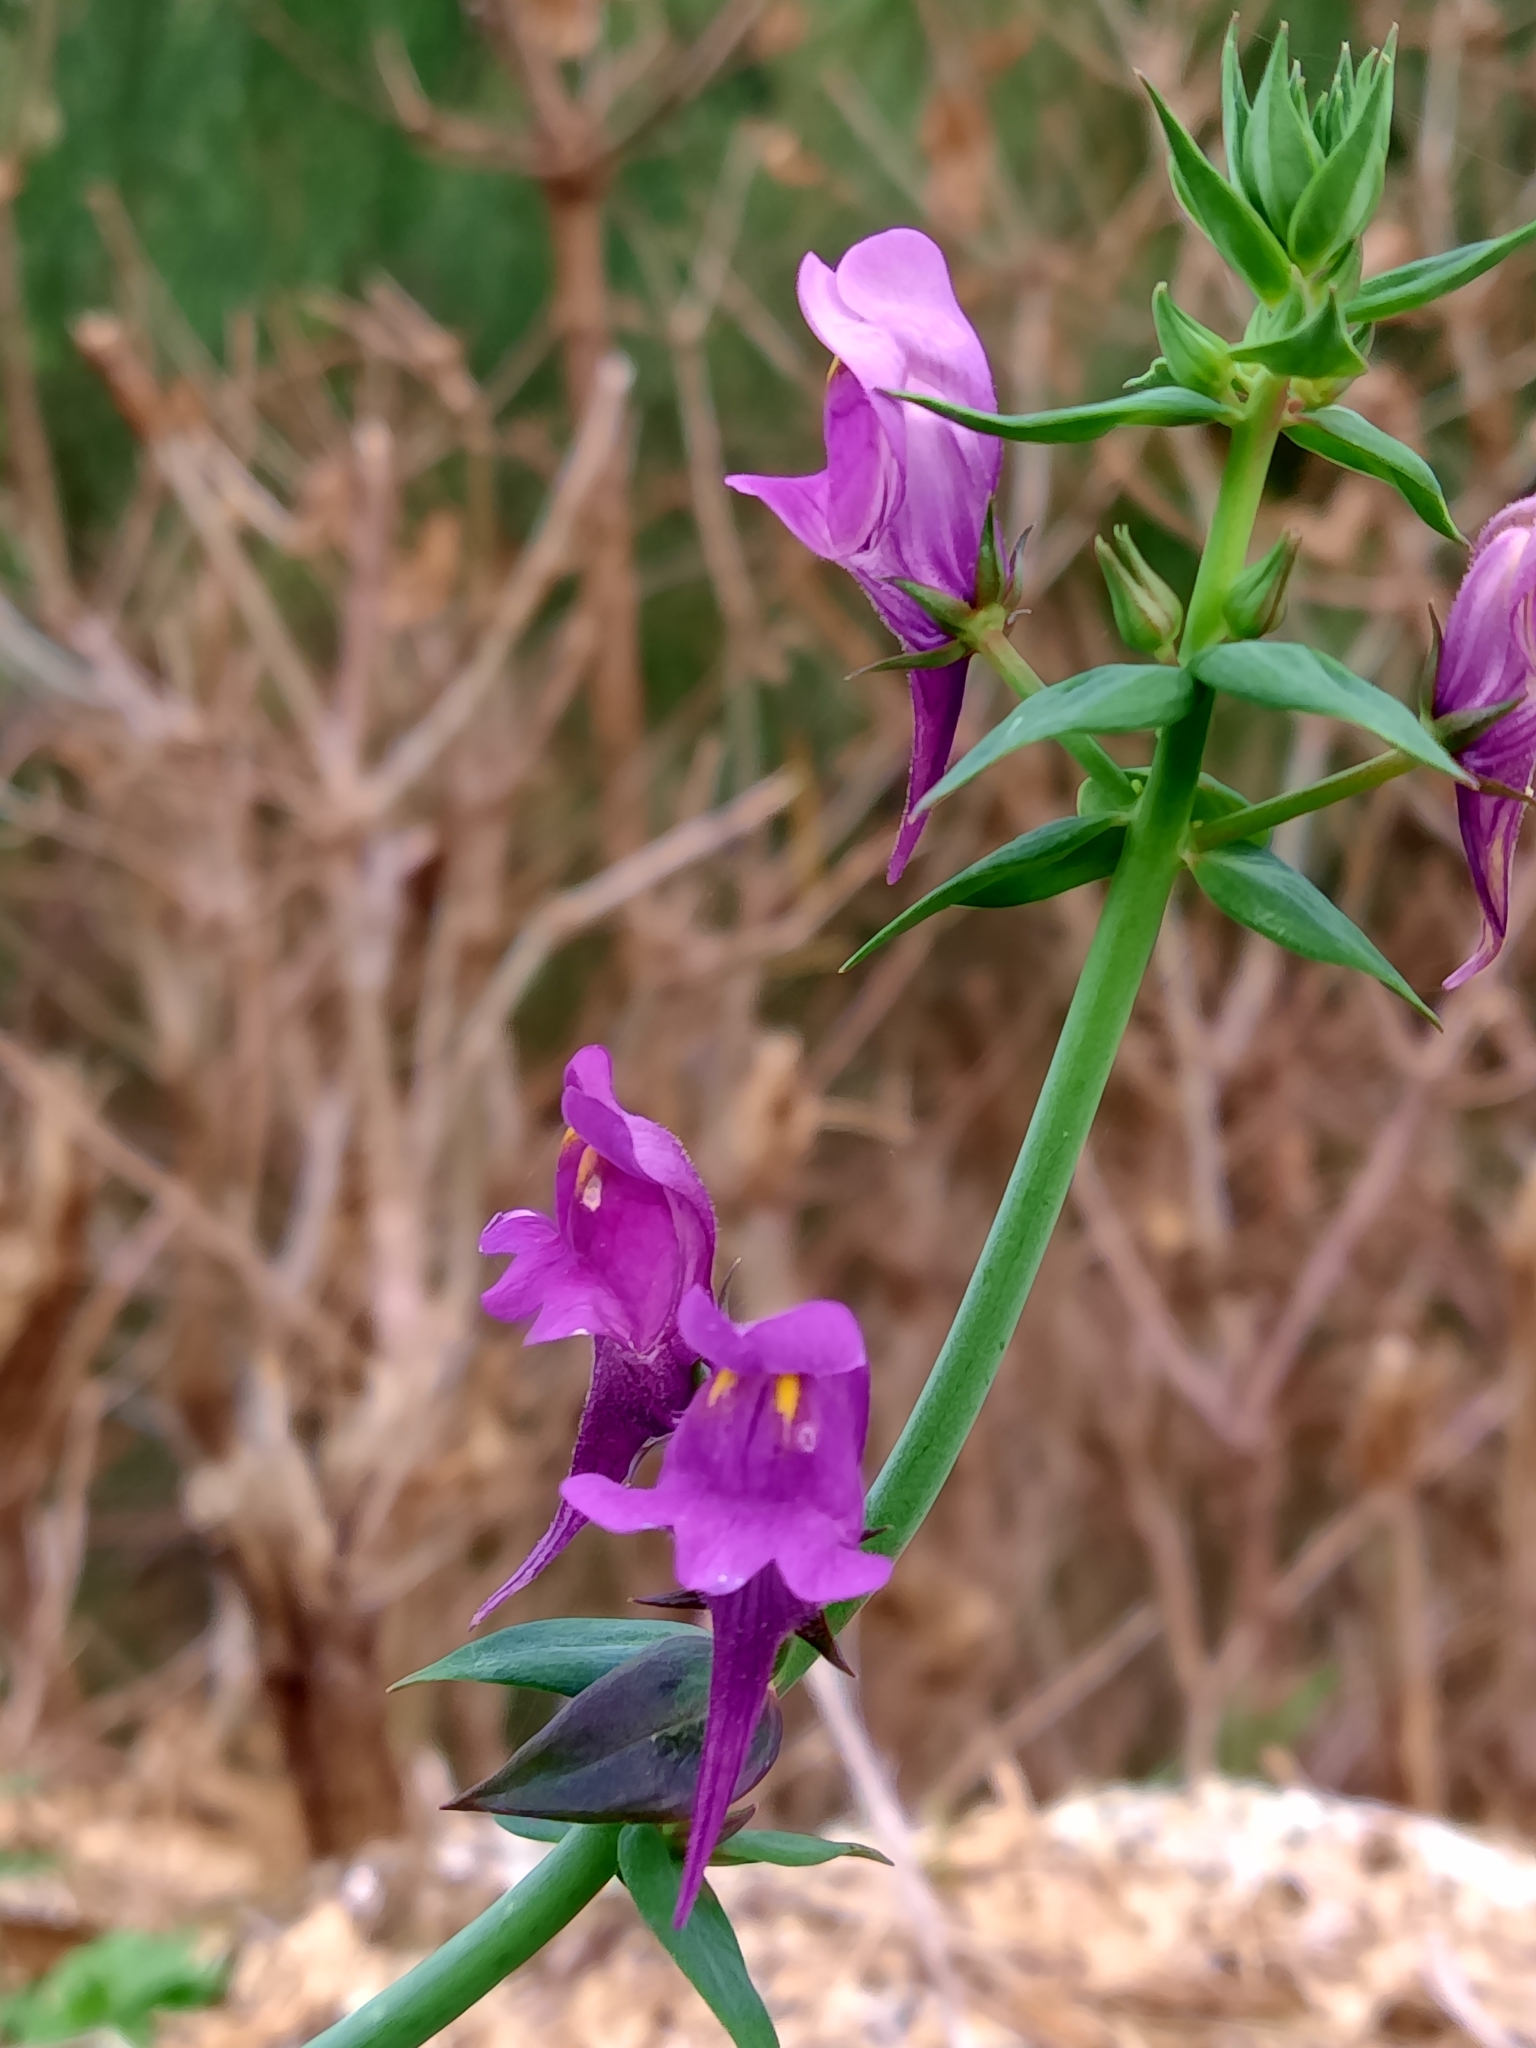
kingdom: Plantae
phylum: Tracheophyta
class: Magnoliopsida
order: Lamiales
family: Plantaginaceae
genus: Linaria
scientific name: Linaria triornithophora
